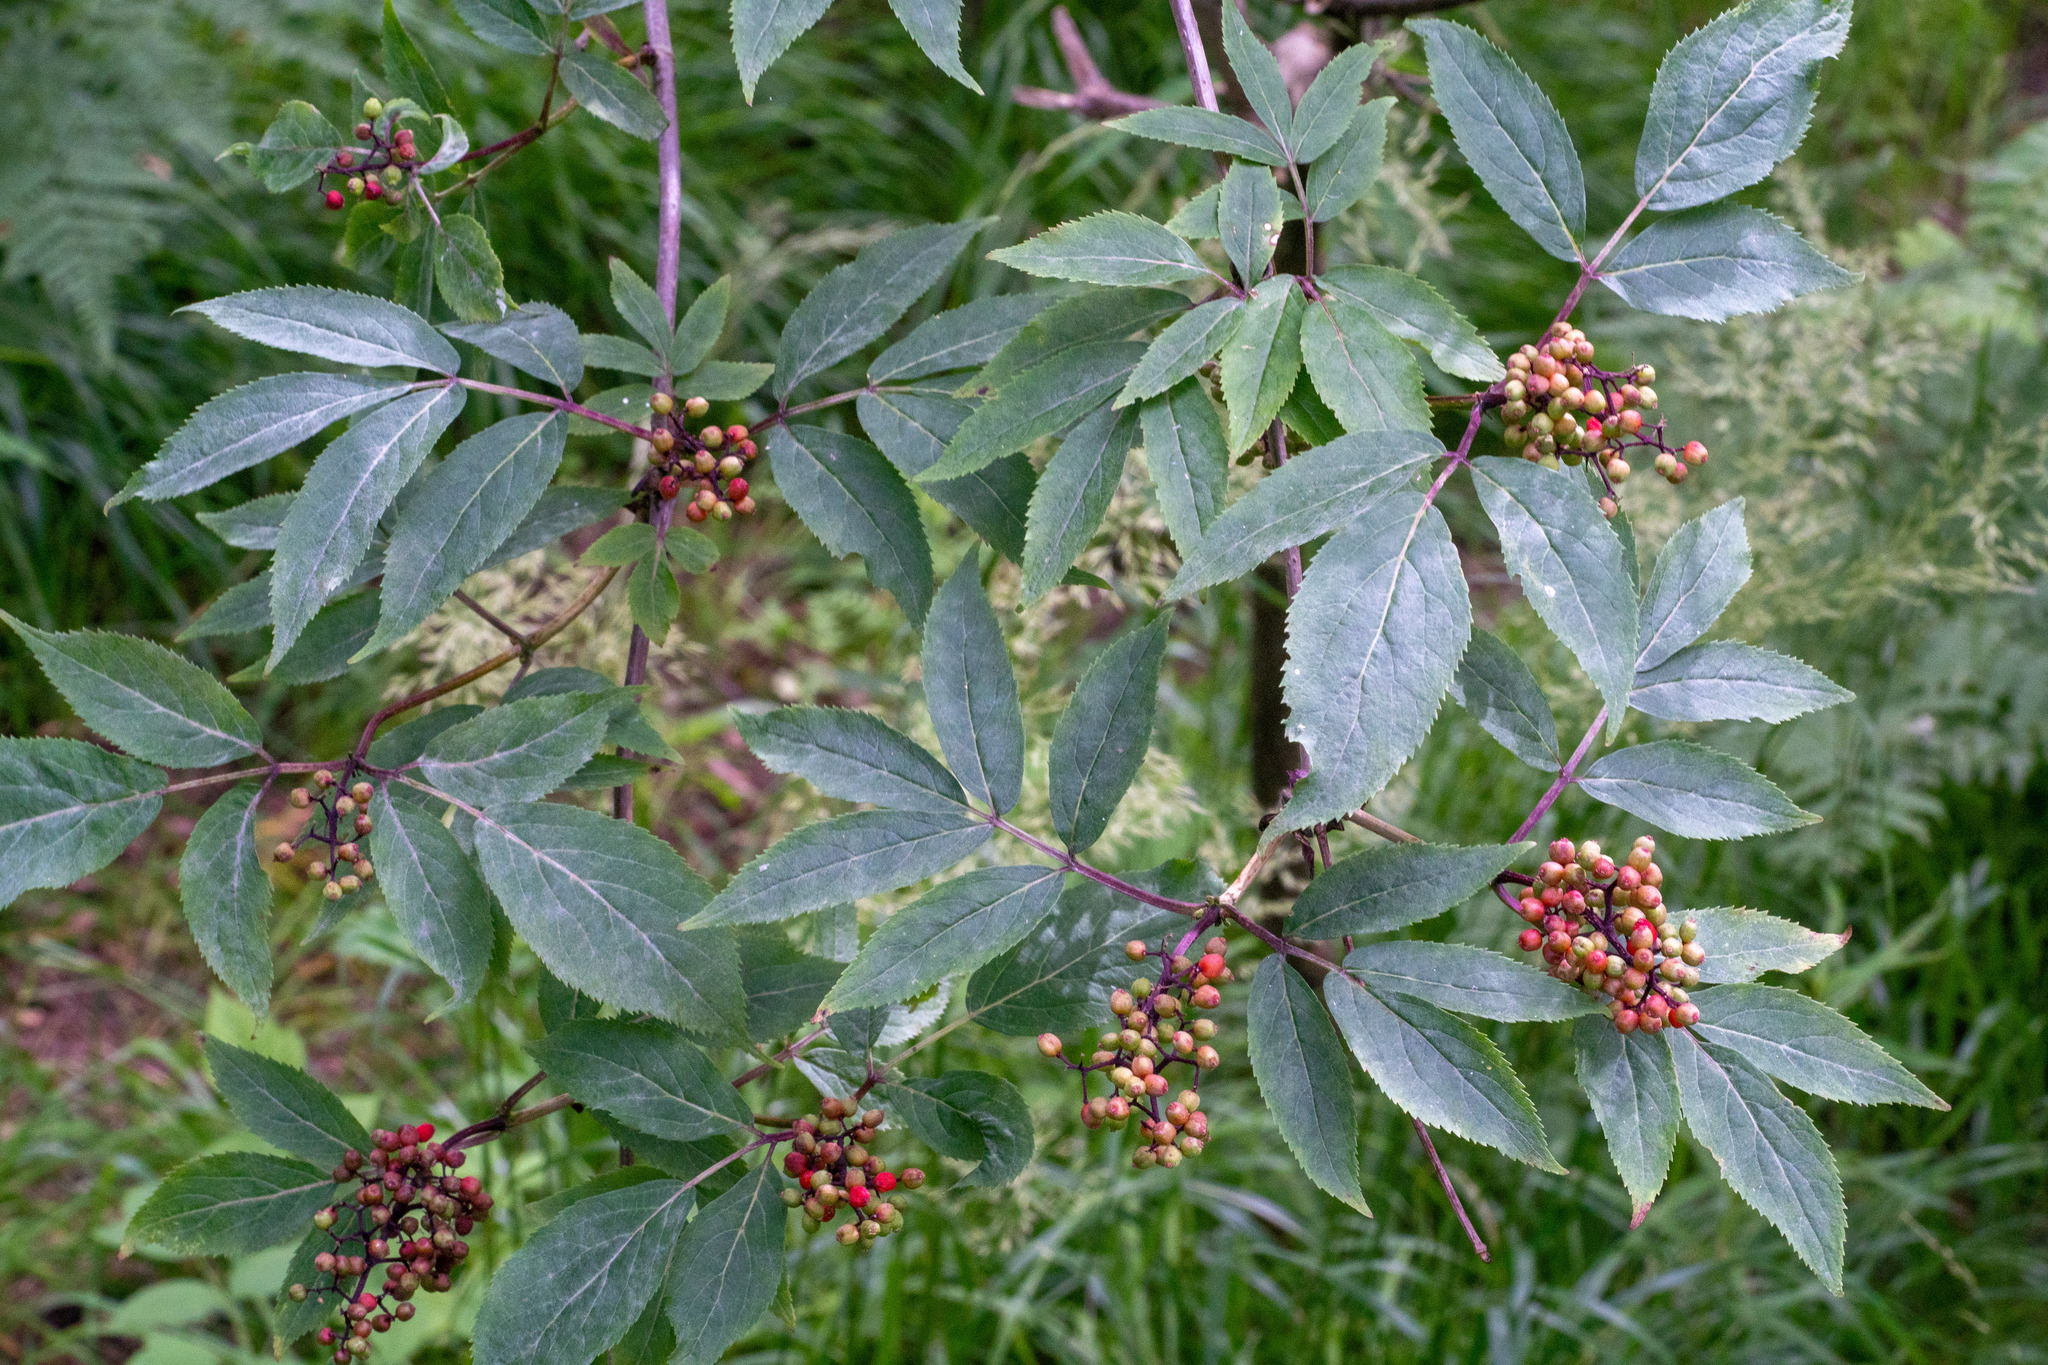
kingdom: Plantae
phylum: Tracheophyta
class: Magnoliopsida
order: Dipsacales
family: Viburnaceae
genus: Sambucus
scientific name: Sambucus racemosa
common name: Red-berried elder
